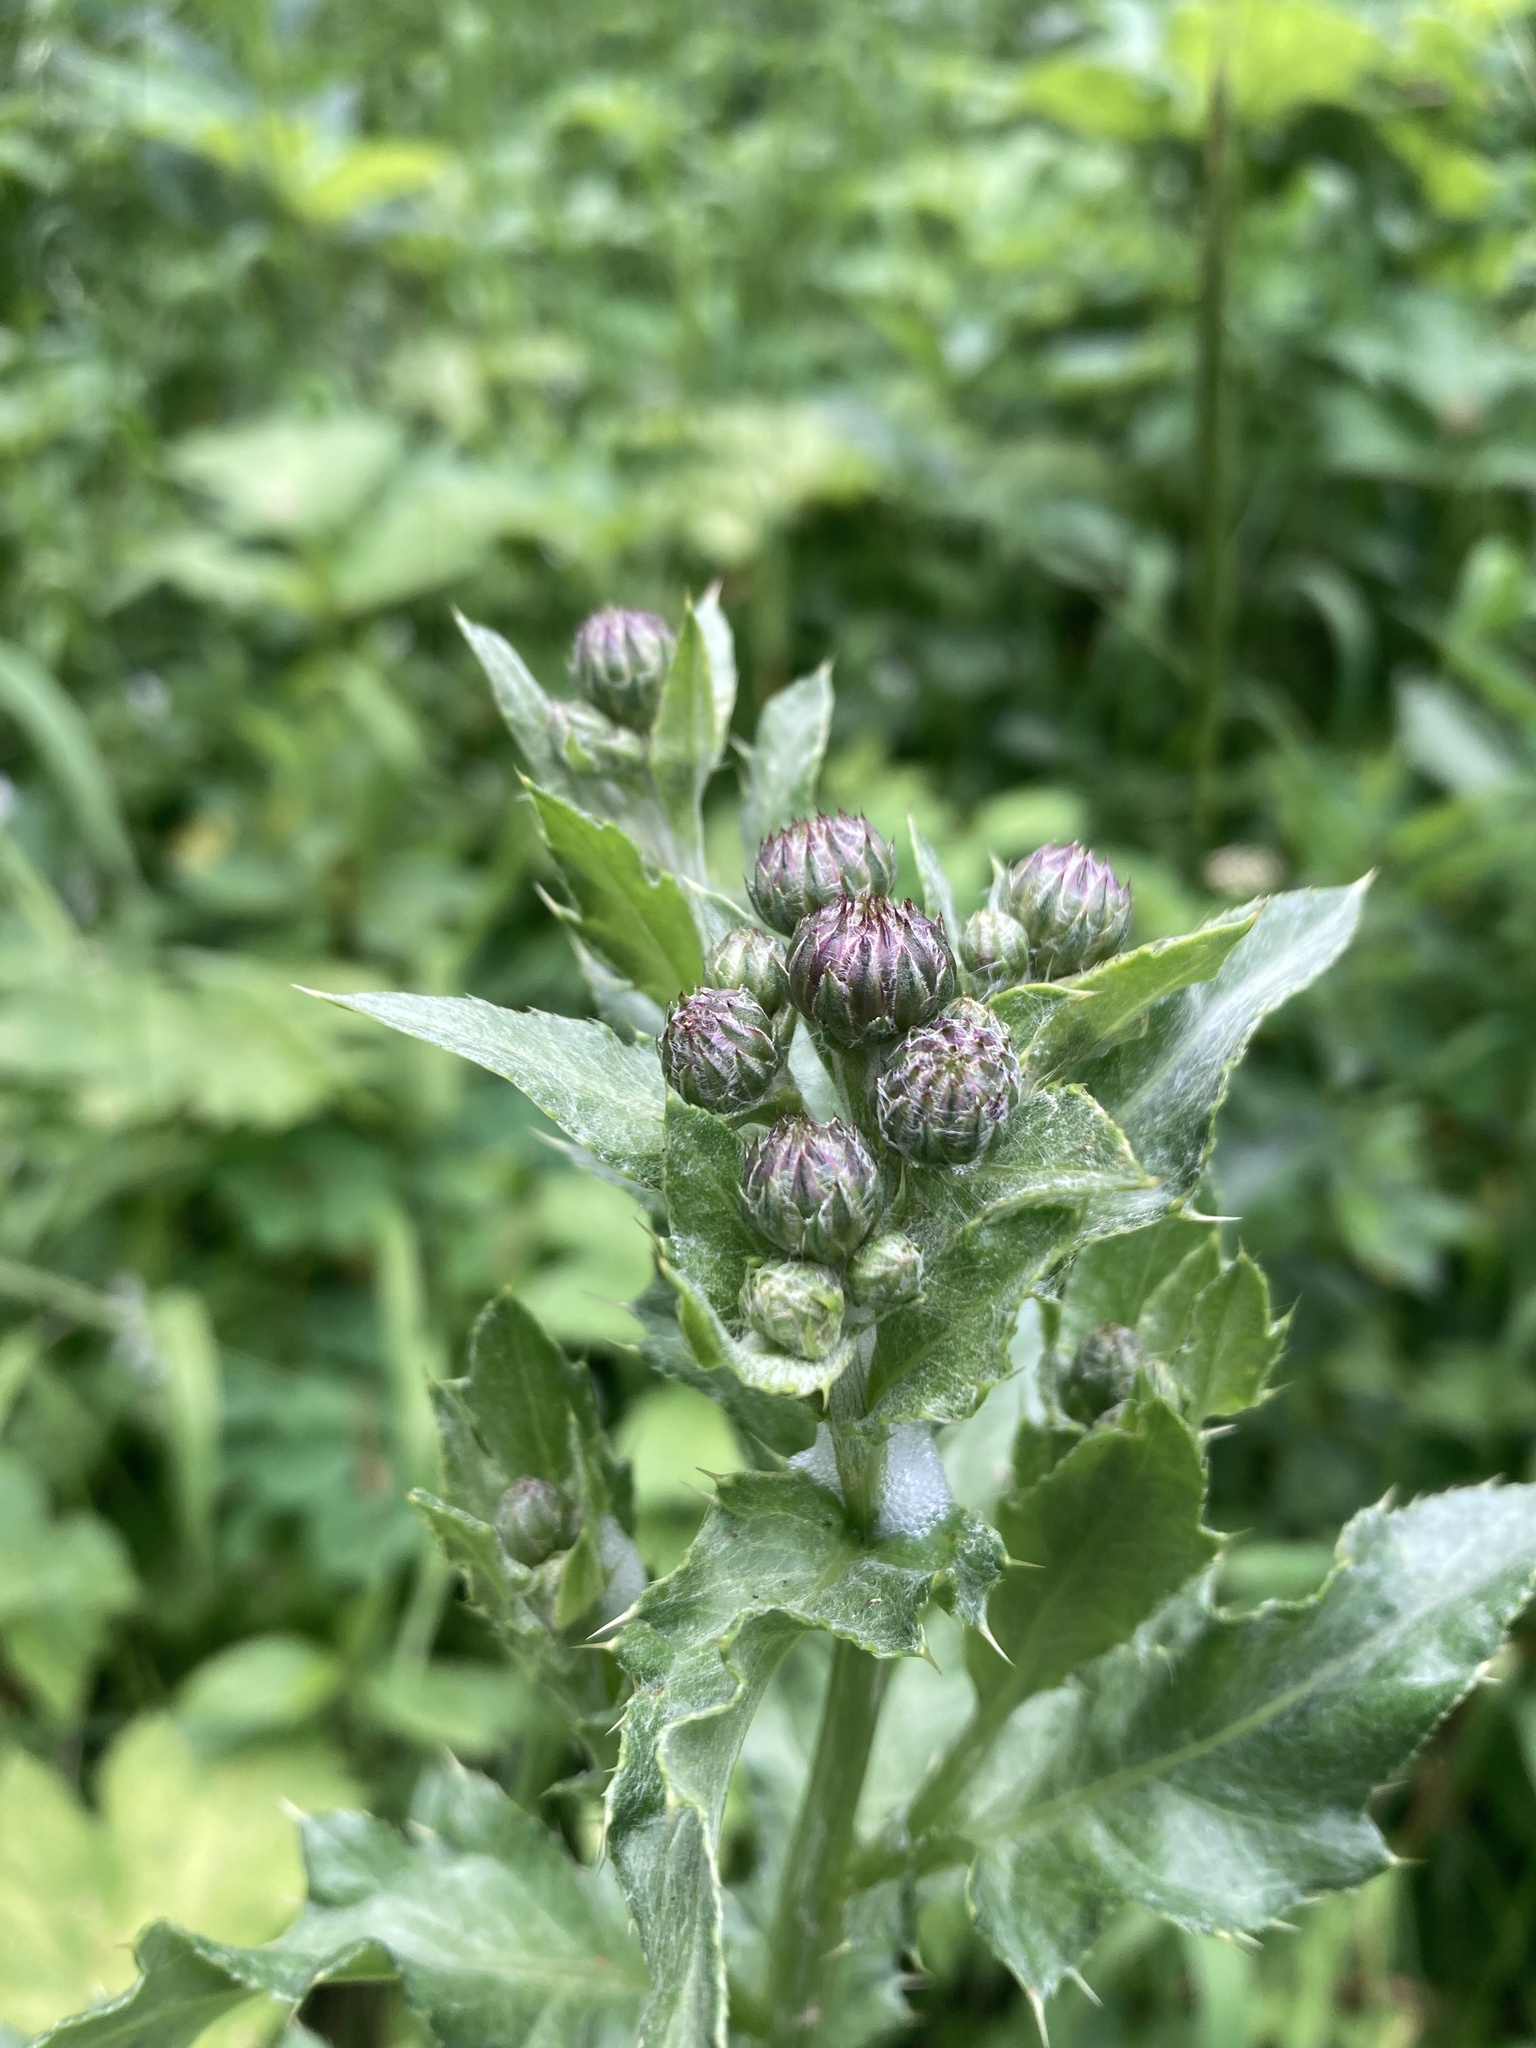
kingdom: Plantae
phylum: Tracheophyta
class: Magnoliopsida
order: Asterales
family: Asteraceae
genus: Cirsium
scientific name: Cirsium arvense
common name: Creeping thistle
